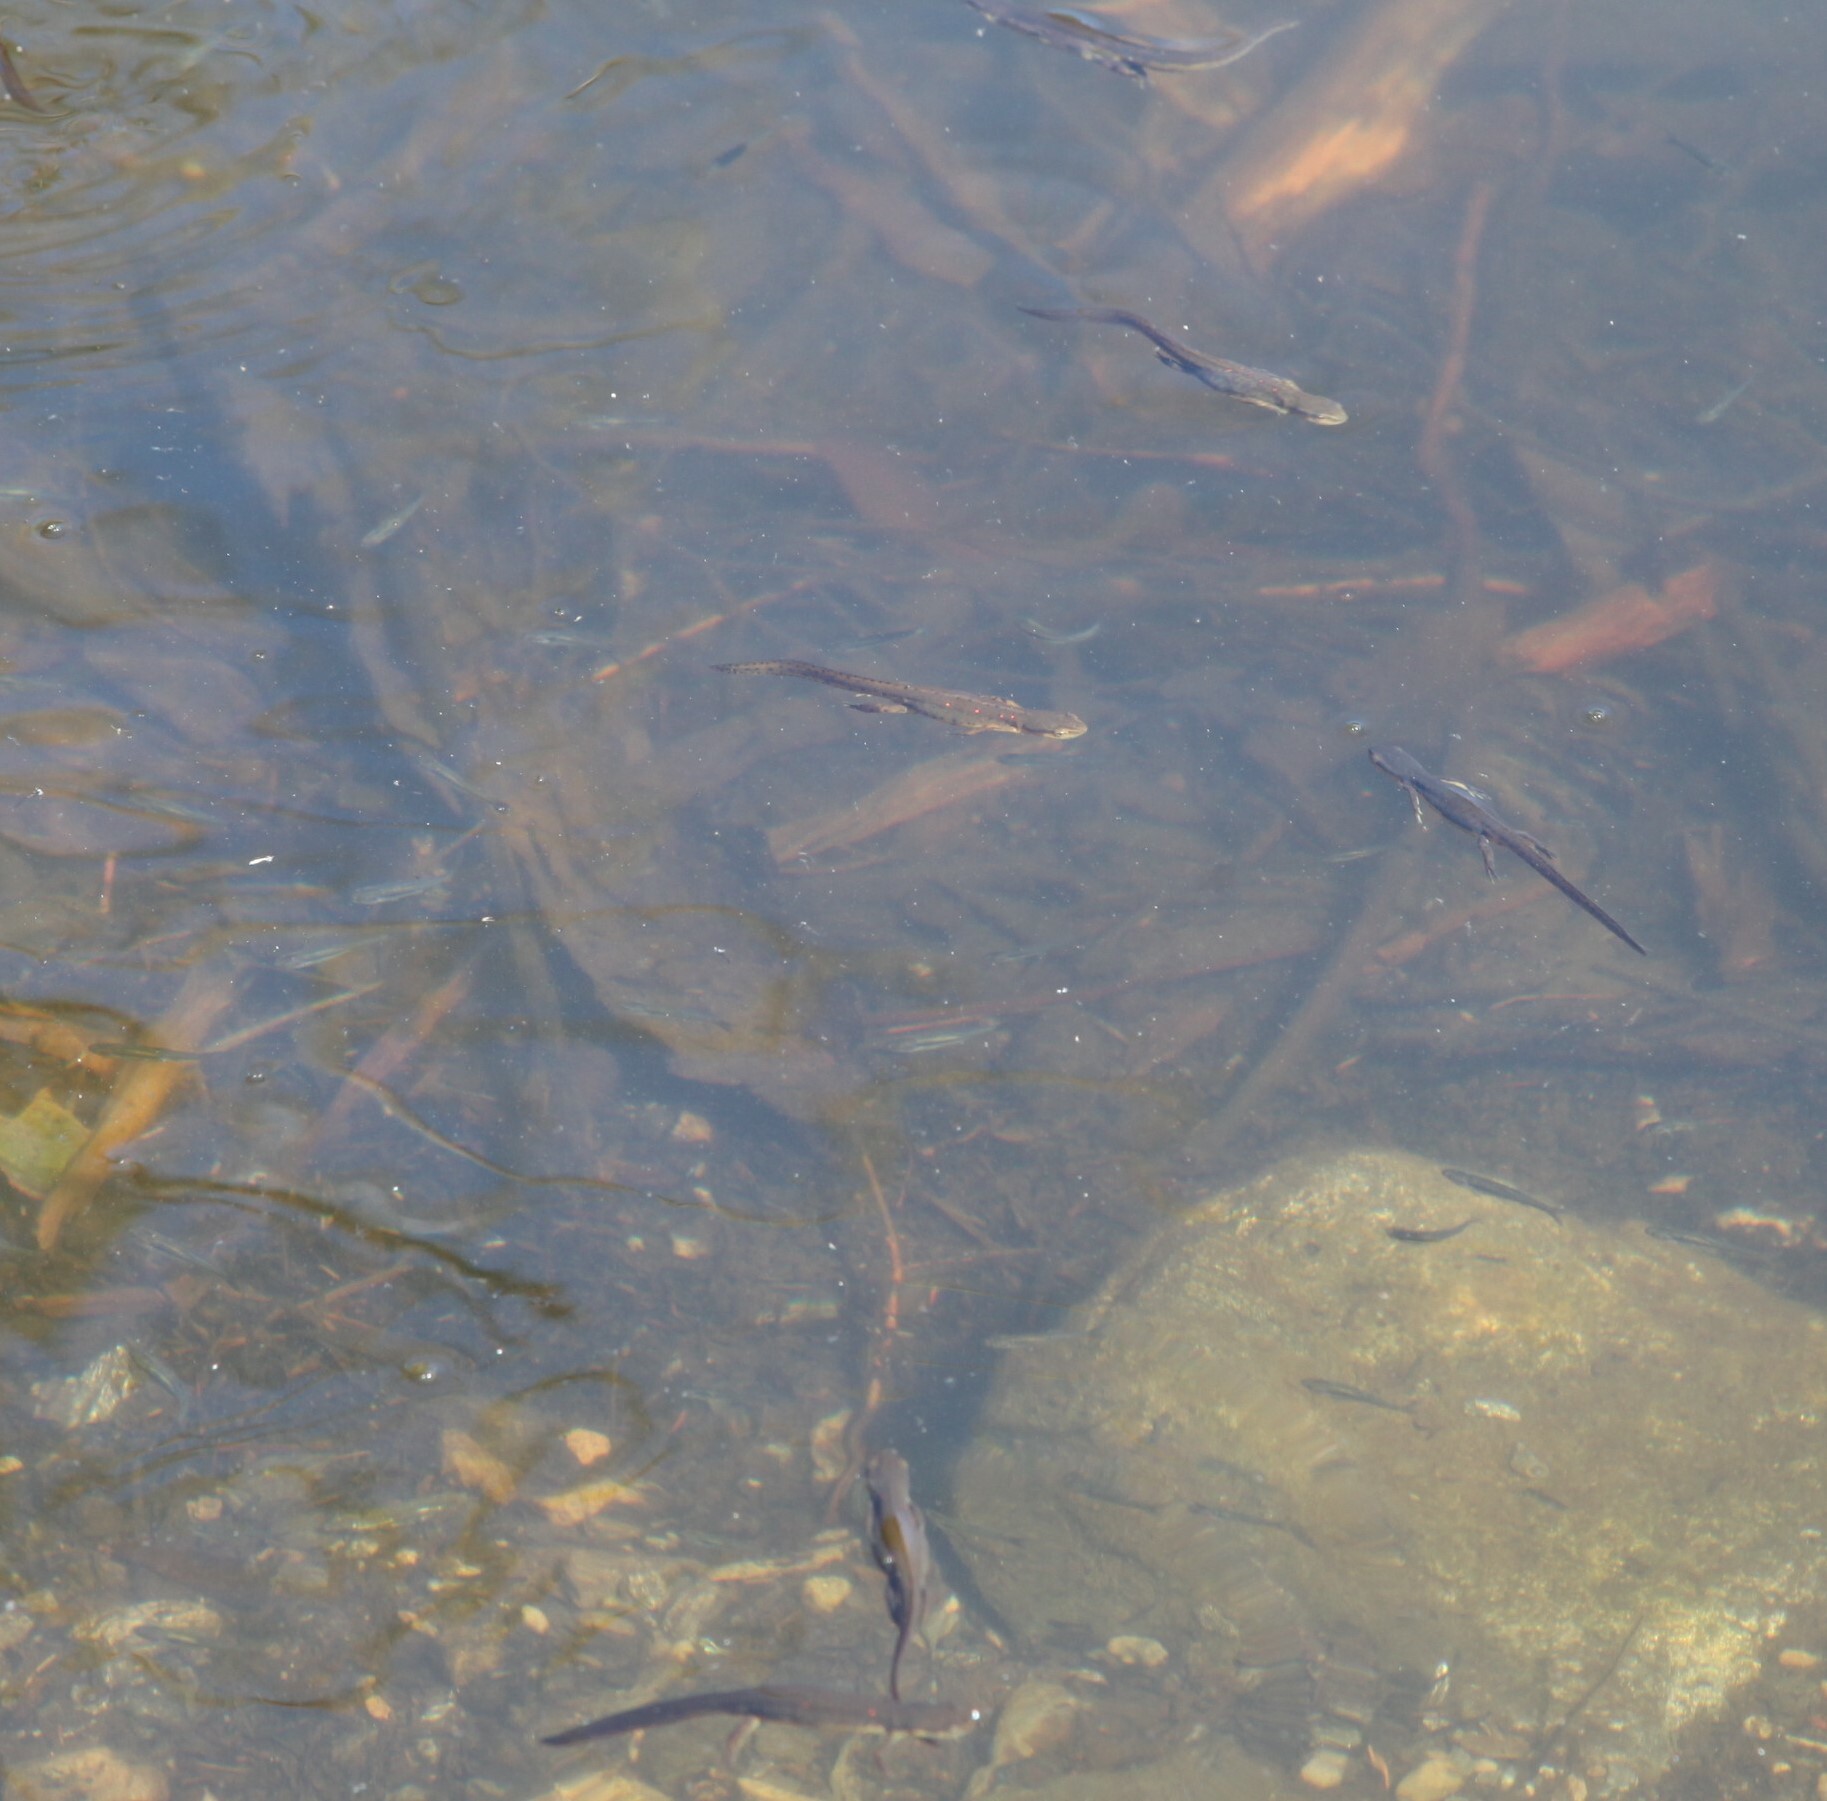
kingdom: Animalia
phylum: Chordata
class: Amphibia
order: Caudata
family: Salamandridae
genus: Notophthalmus
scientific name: Notophthalmus viridescens
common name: Eastern newt
